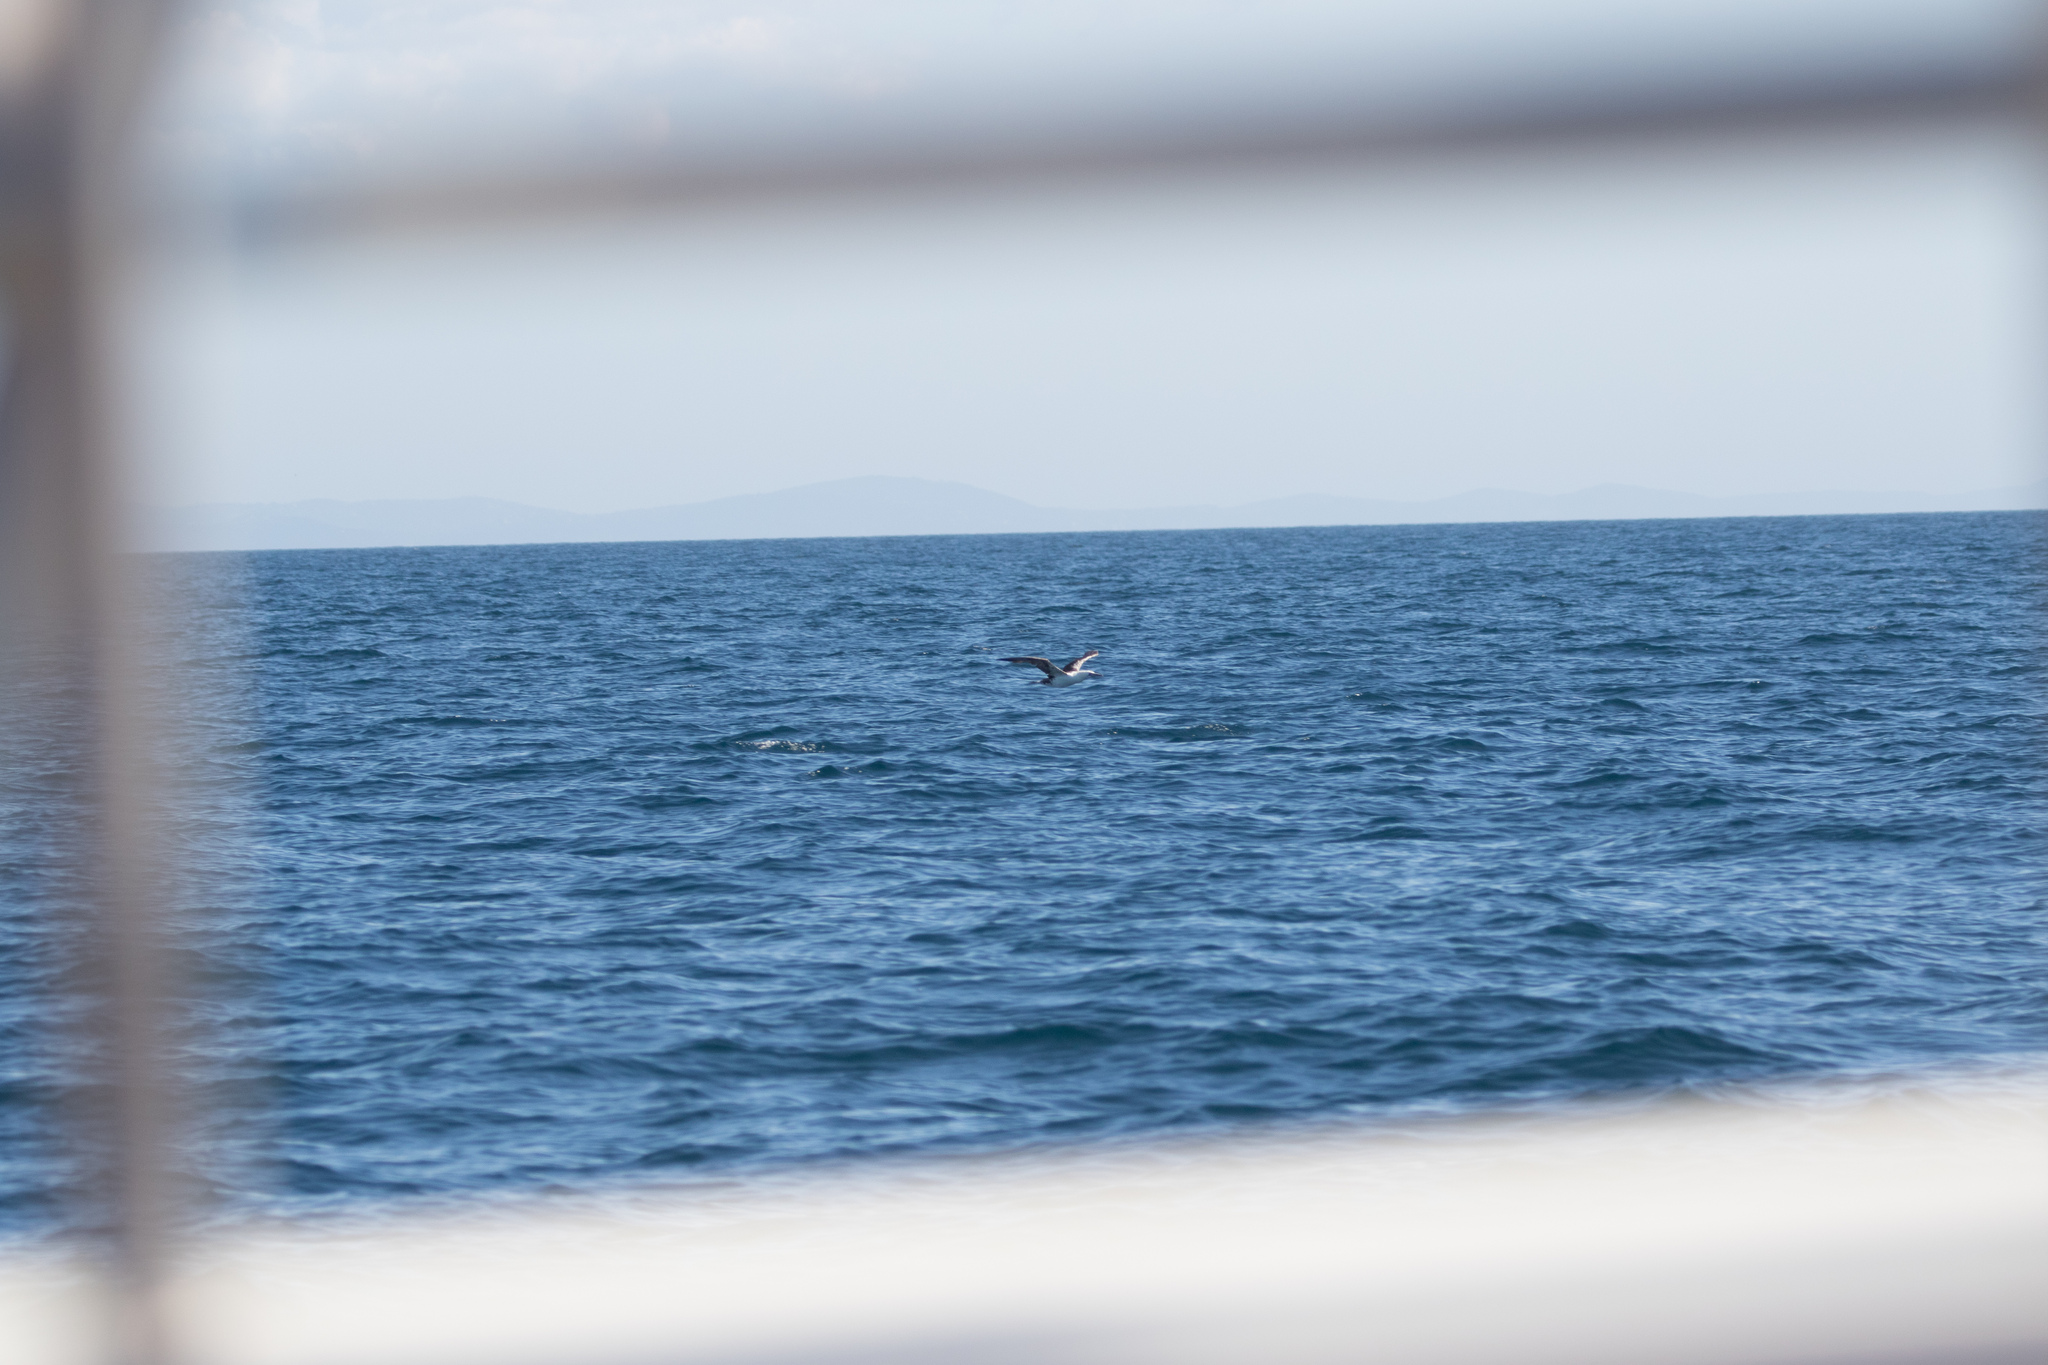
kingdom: Animalia
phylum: Chordata
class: Aves
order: Suliformes
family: Sulidae
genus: Morus
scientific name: Morus bassanus
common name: Northern gannet
